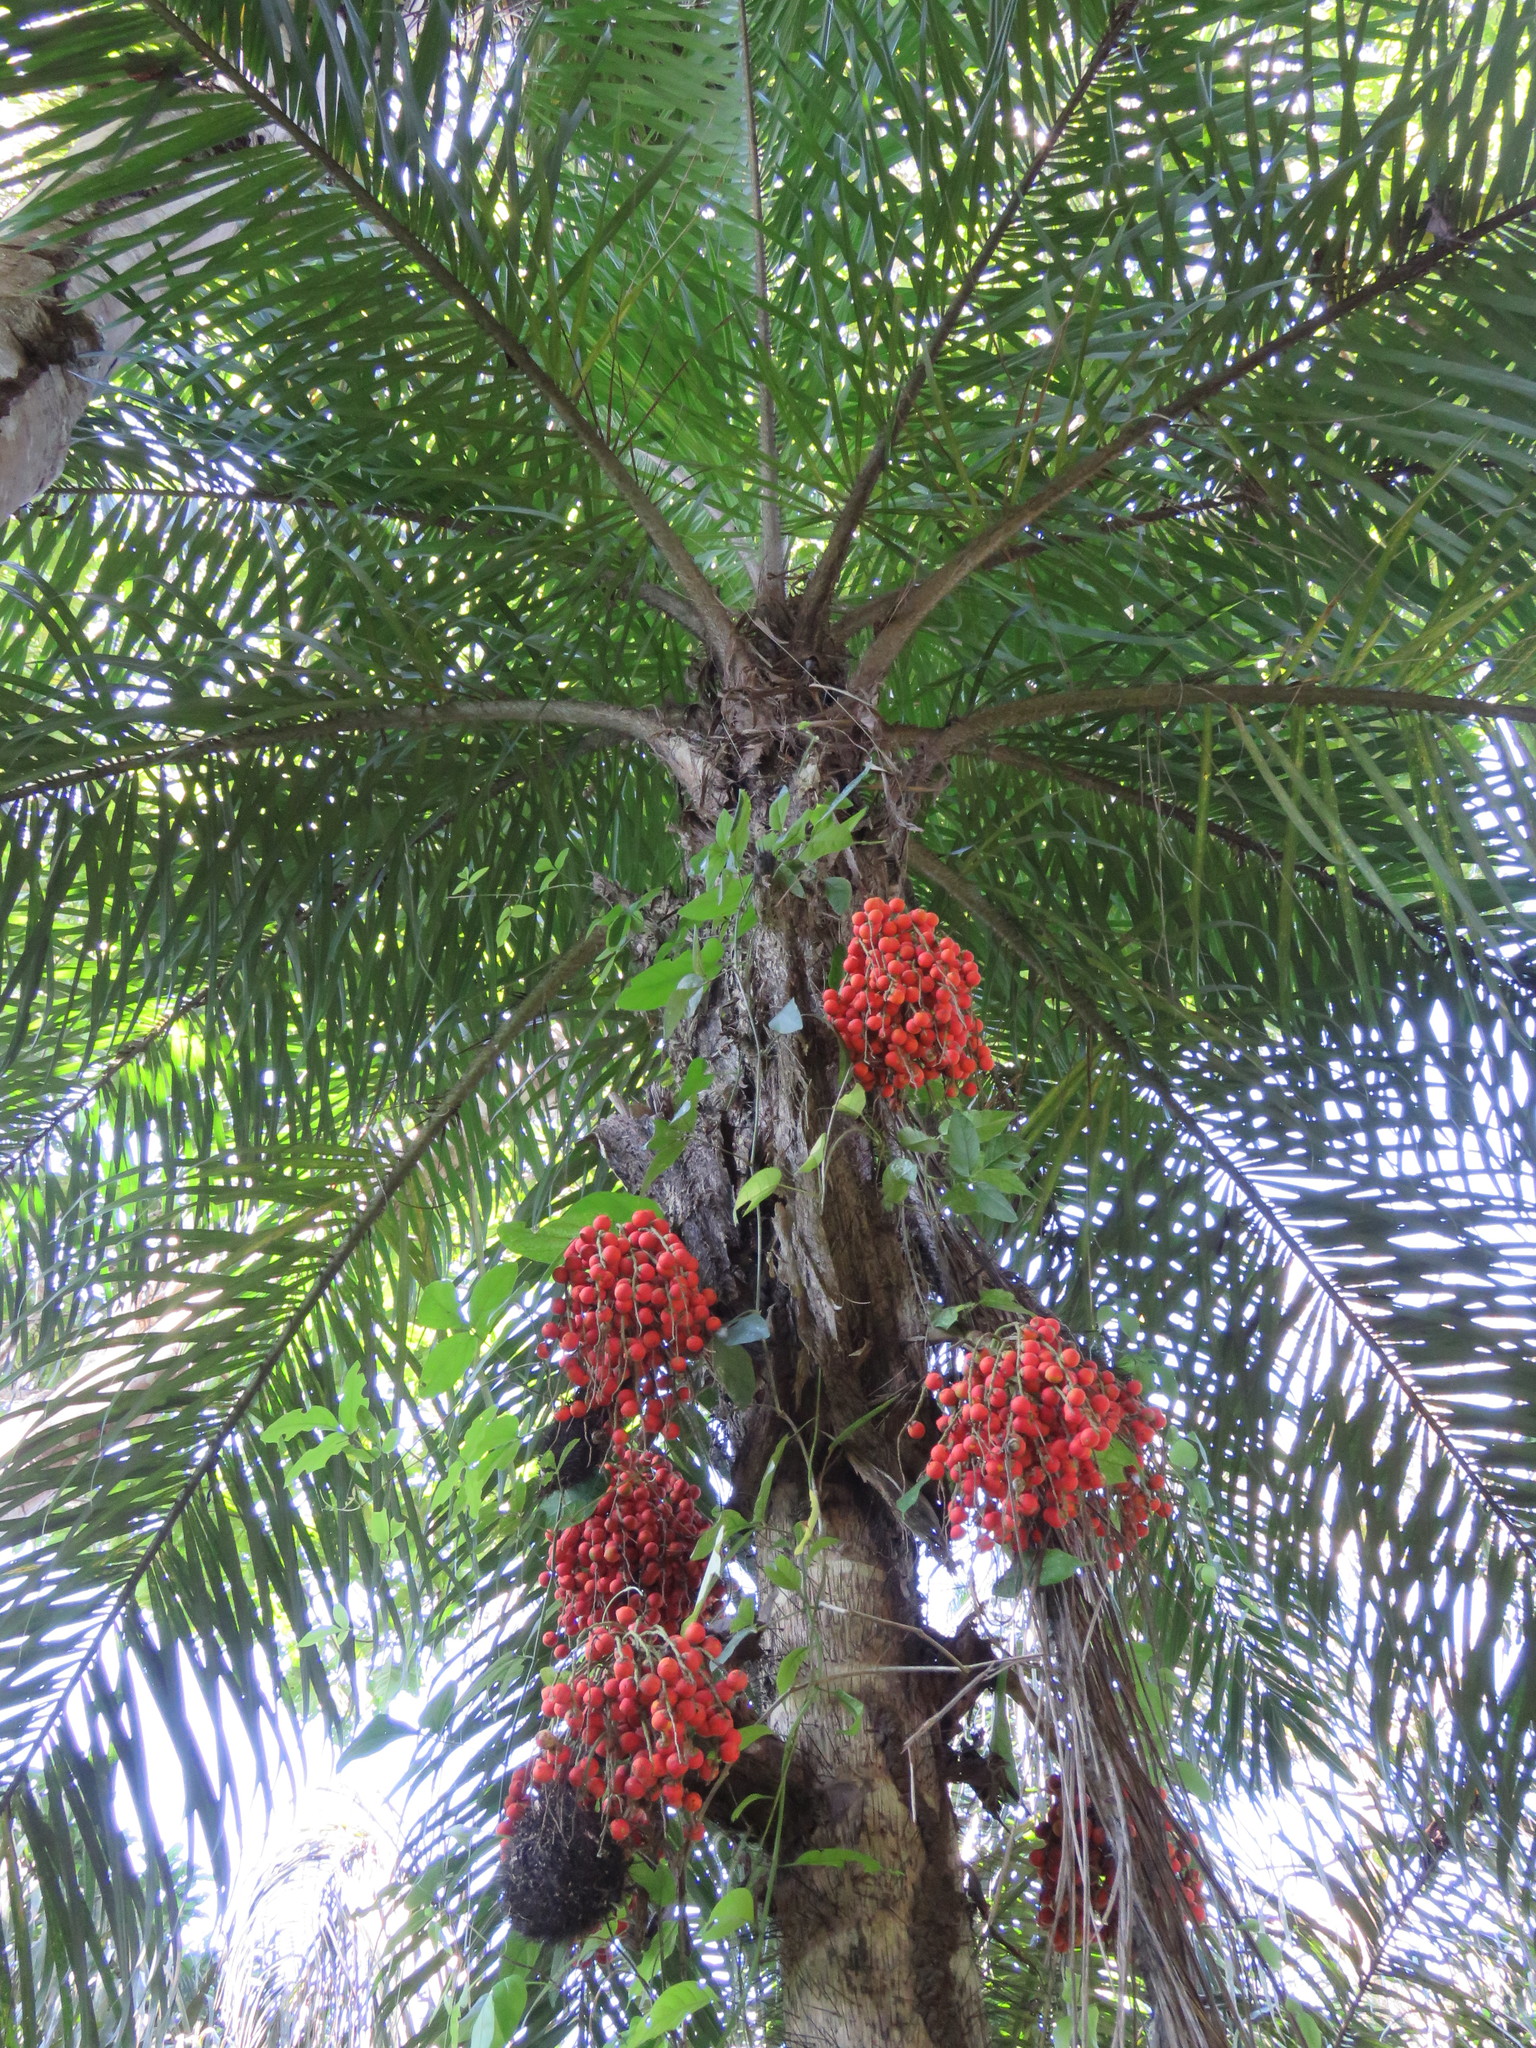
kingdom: Plantae
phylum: Tracheophyta
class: Liliopsida
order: Arecales
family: Arecaceae
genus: Bactris
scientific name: Bactris gasipaes
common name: Peach palm
